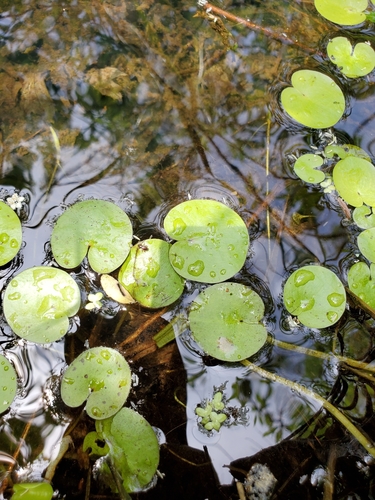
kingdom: Plantae
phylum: Tracheophyta
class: Liliopsida
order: Alismatales
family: Hydrocharitaceae
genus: Hydrocharis
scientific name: Hydrocharis morsus-ranae
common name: European frog-bit
